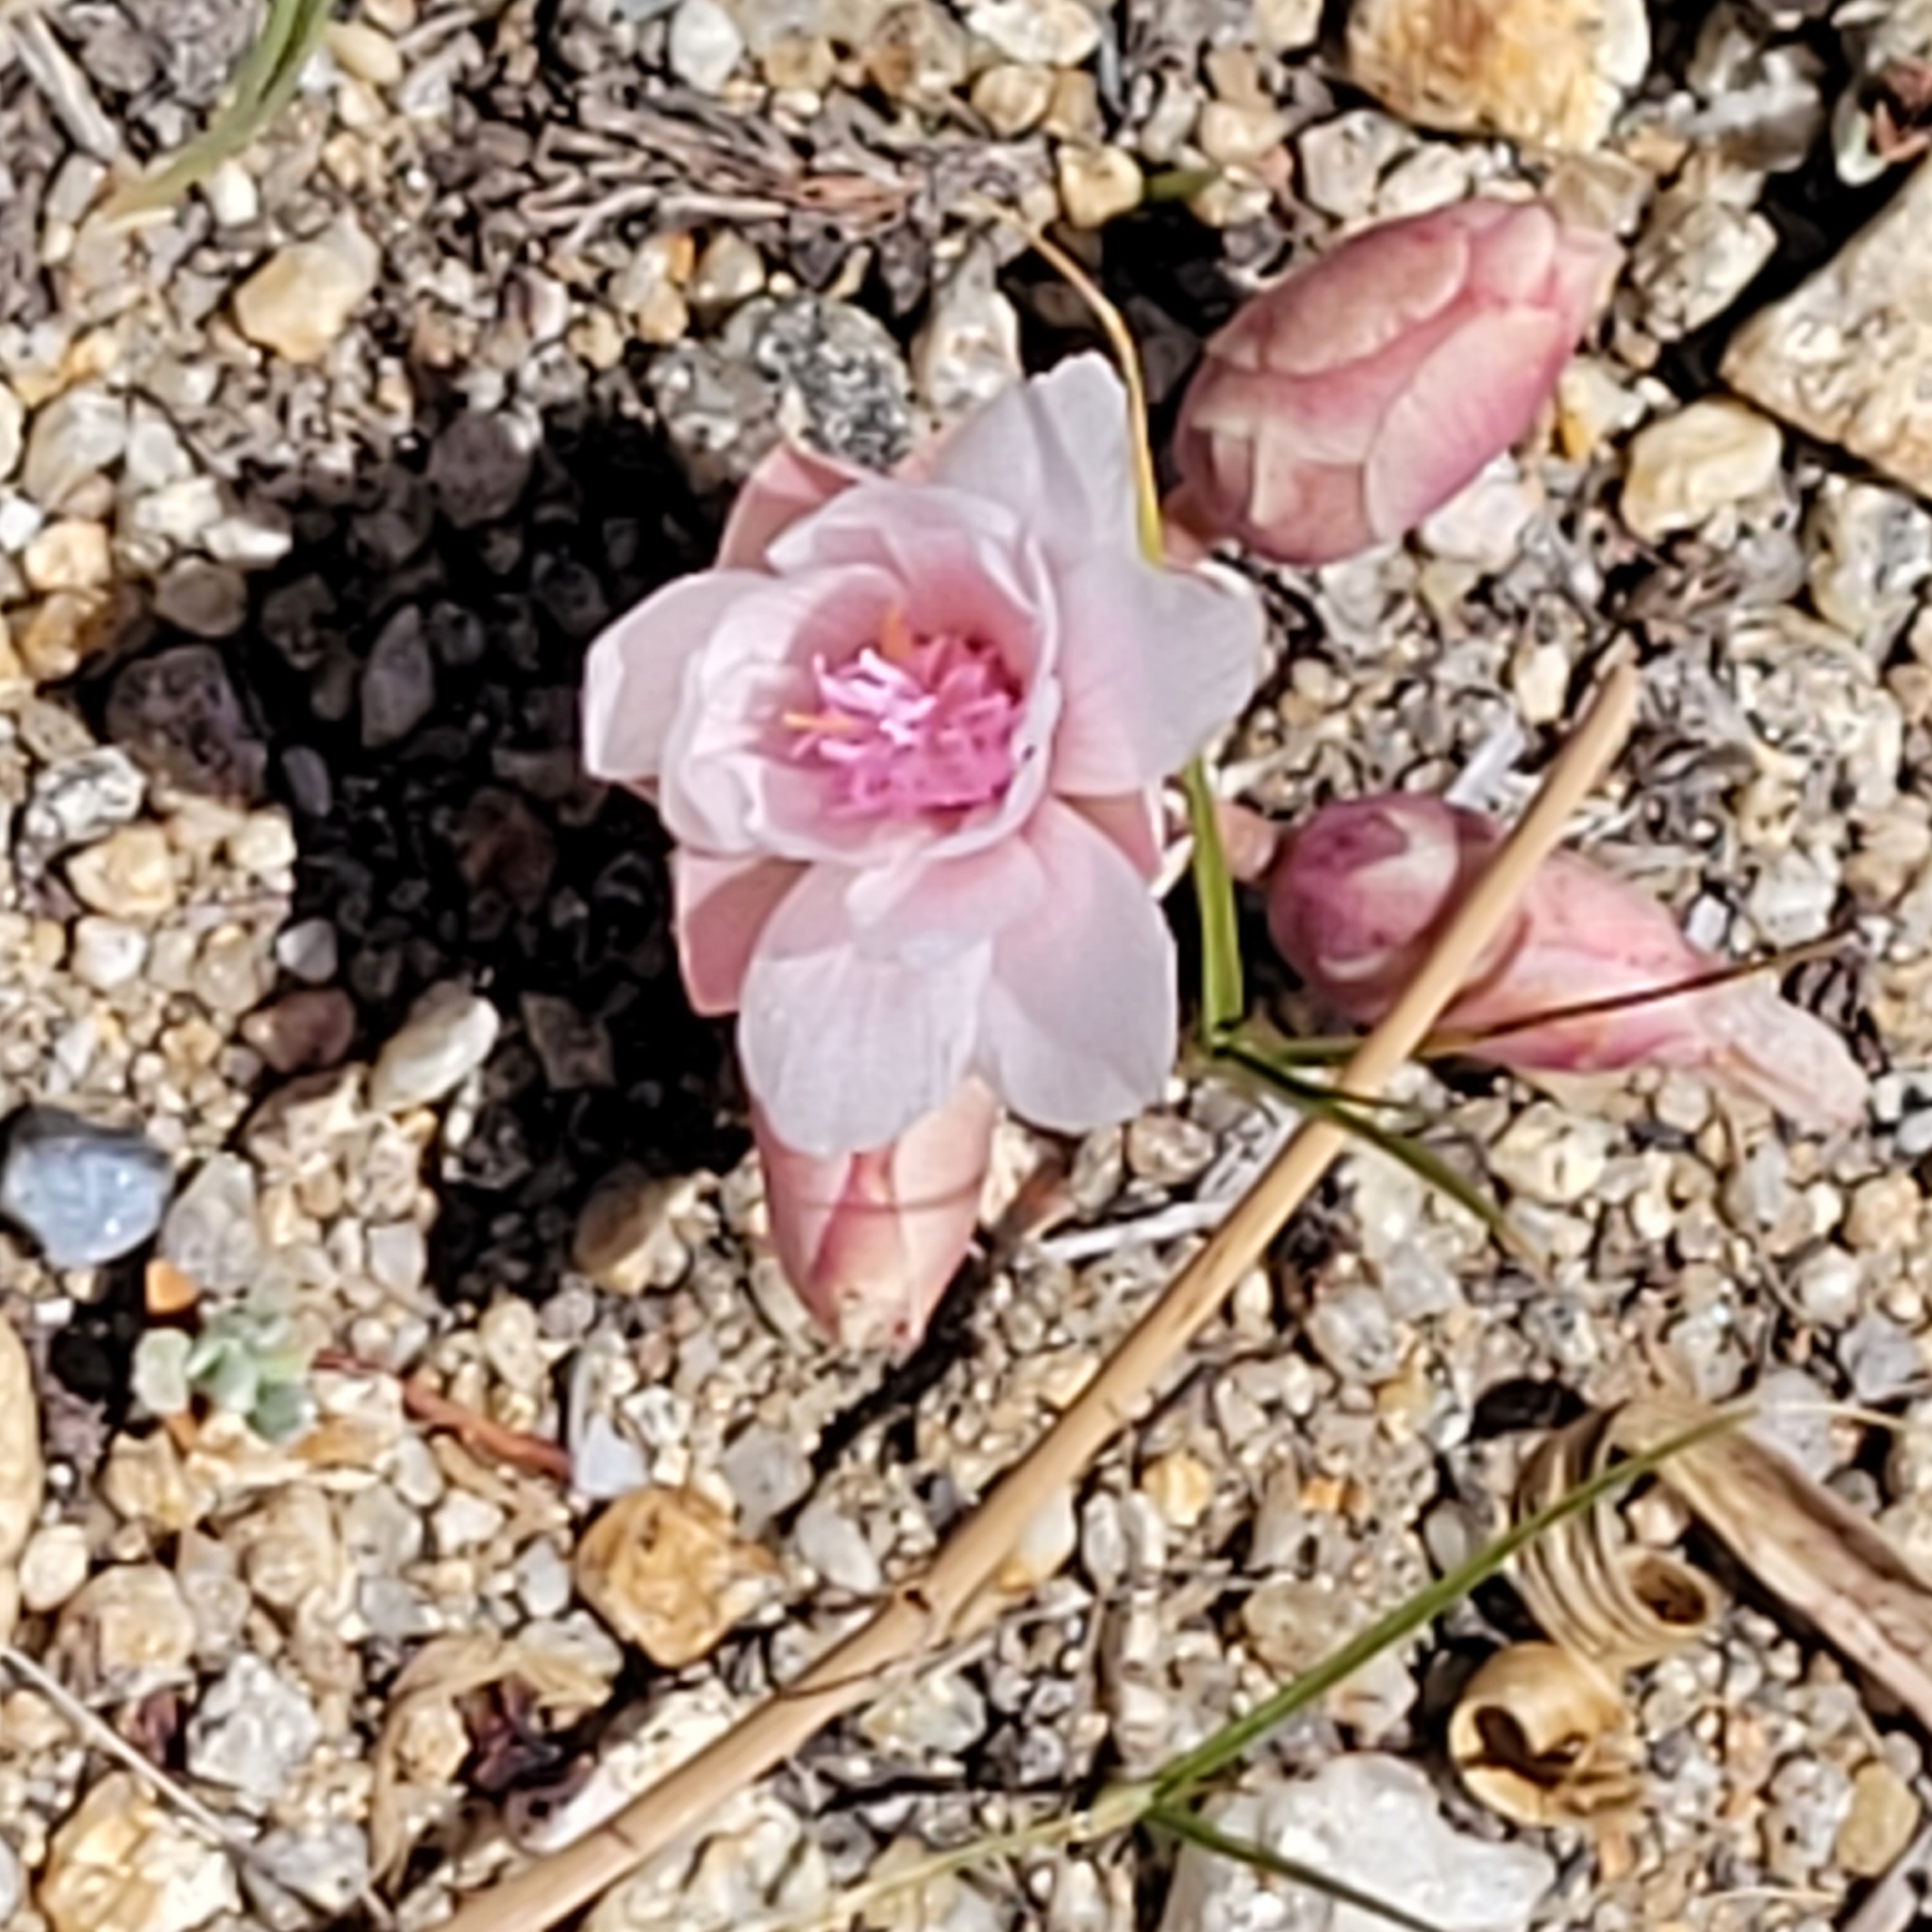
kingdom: Plantae
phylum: Tracheophyta
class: Magnoliopsida
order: Caryophyllales
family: Montiaceae
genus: Lewisia
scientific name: Lewisia rediviva
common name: Bitter-root
